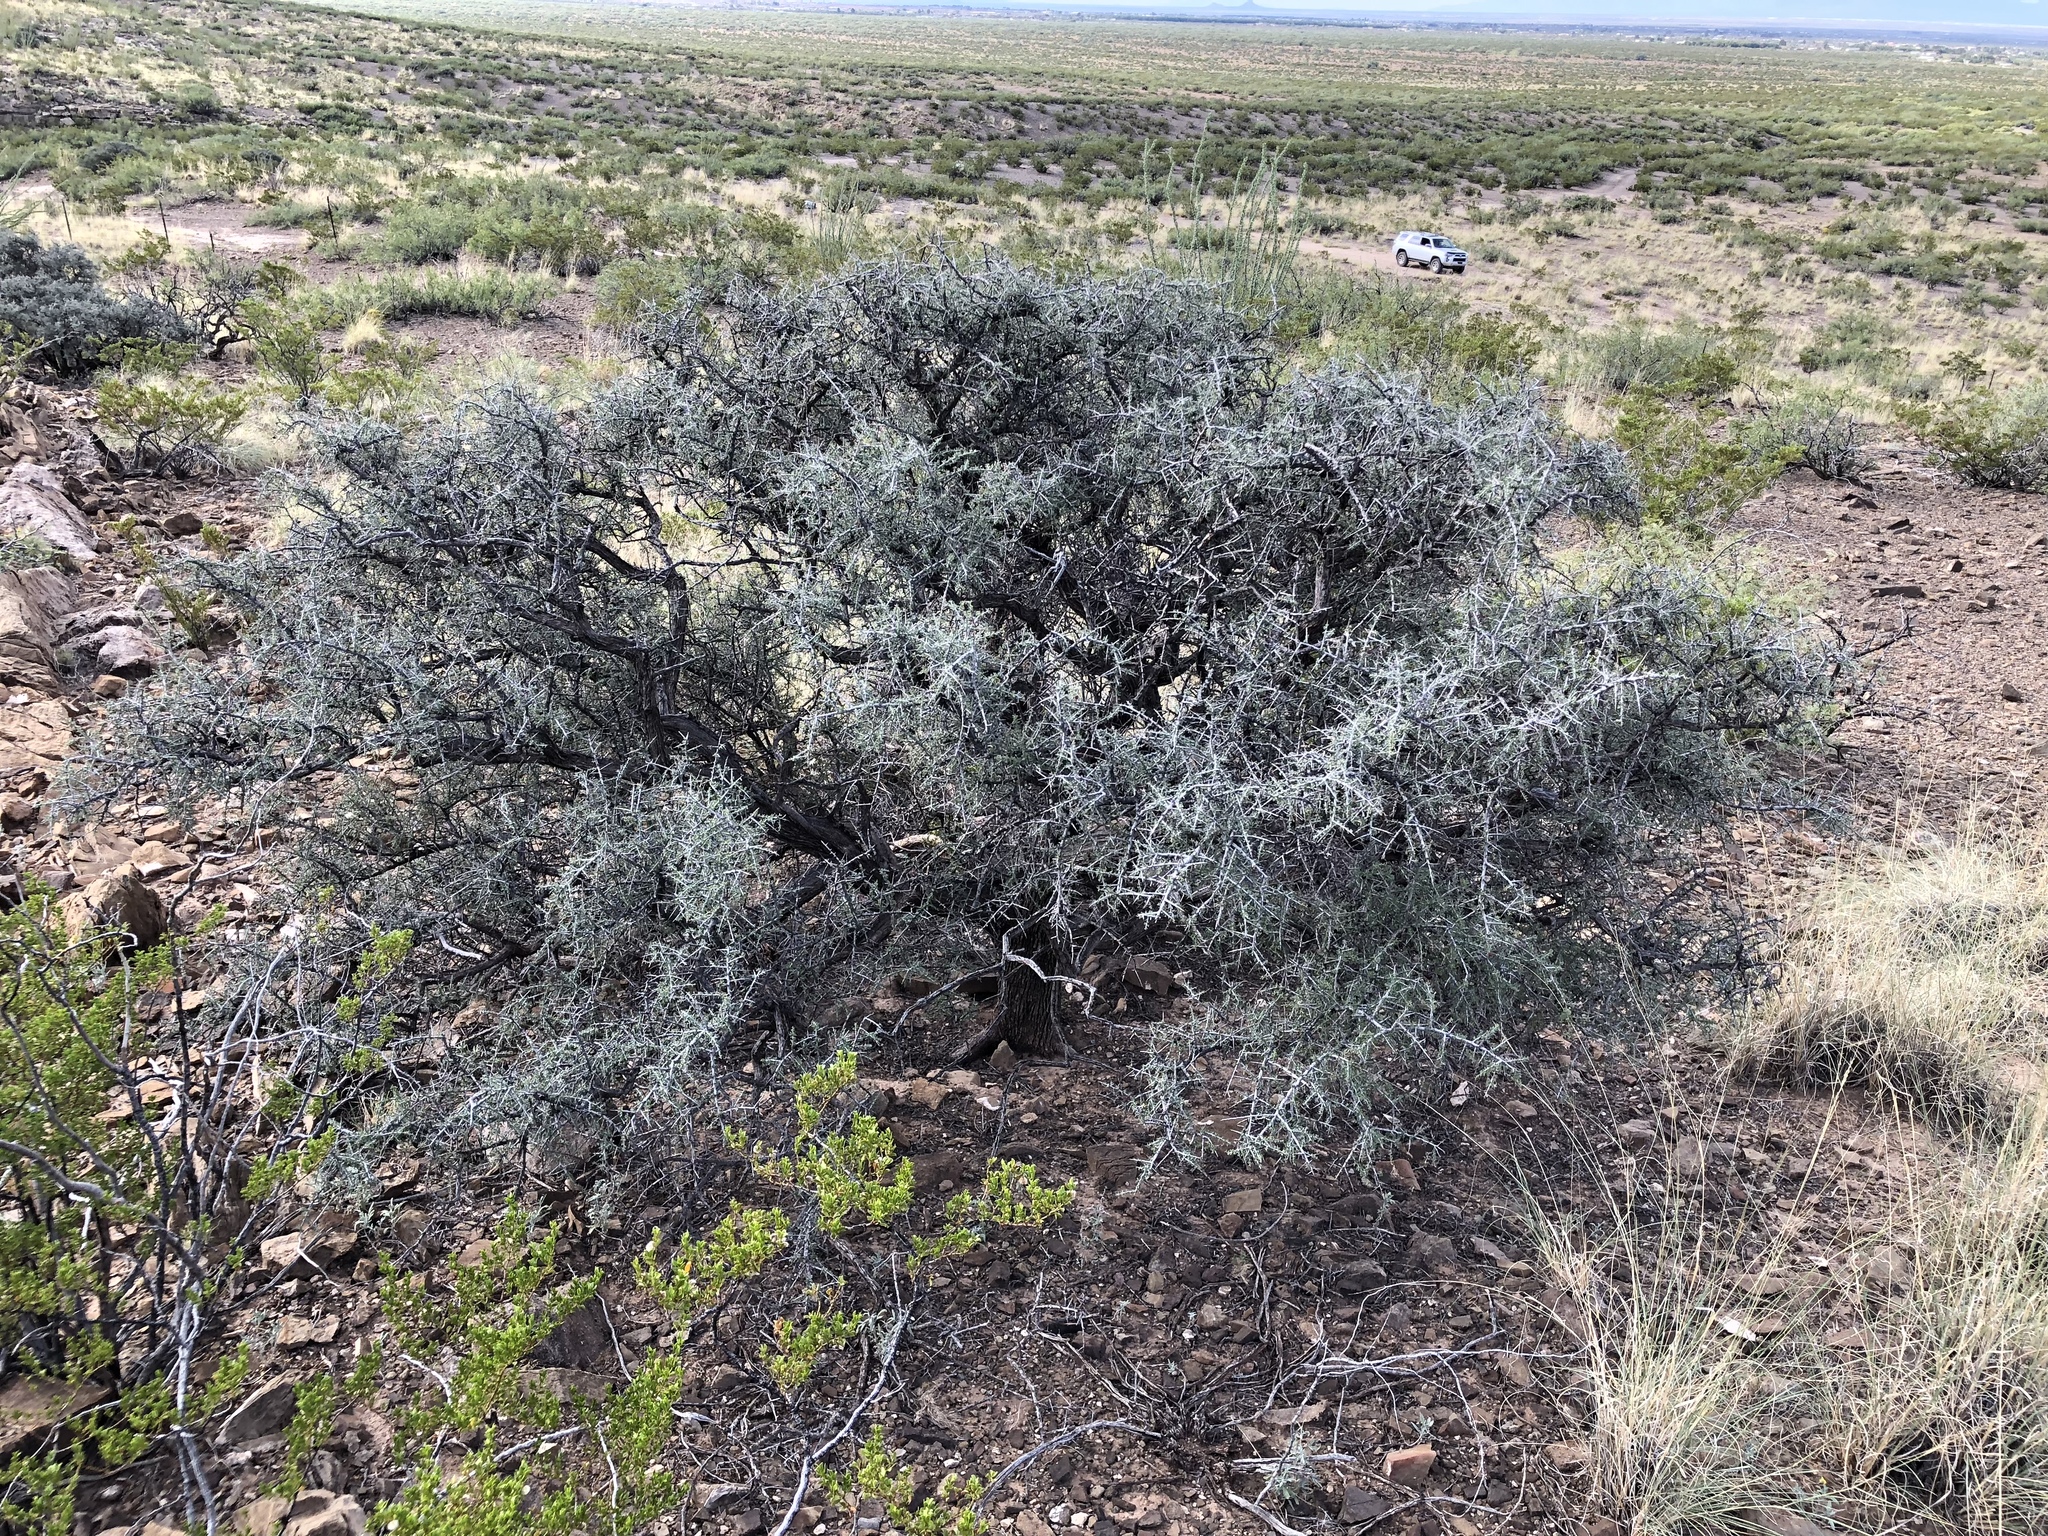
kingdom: Plantae
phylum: Tracheophyta
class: Magnoliopsida
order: Rosales
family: Rhamnaceae
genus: Condalia
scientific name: Condalia warnockii
